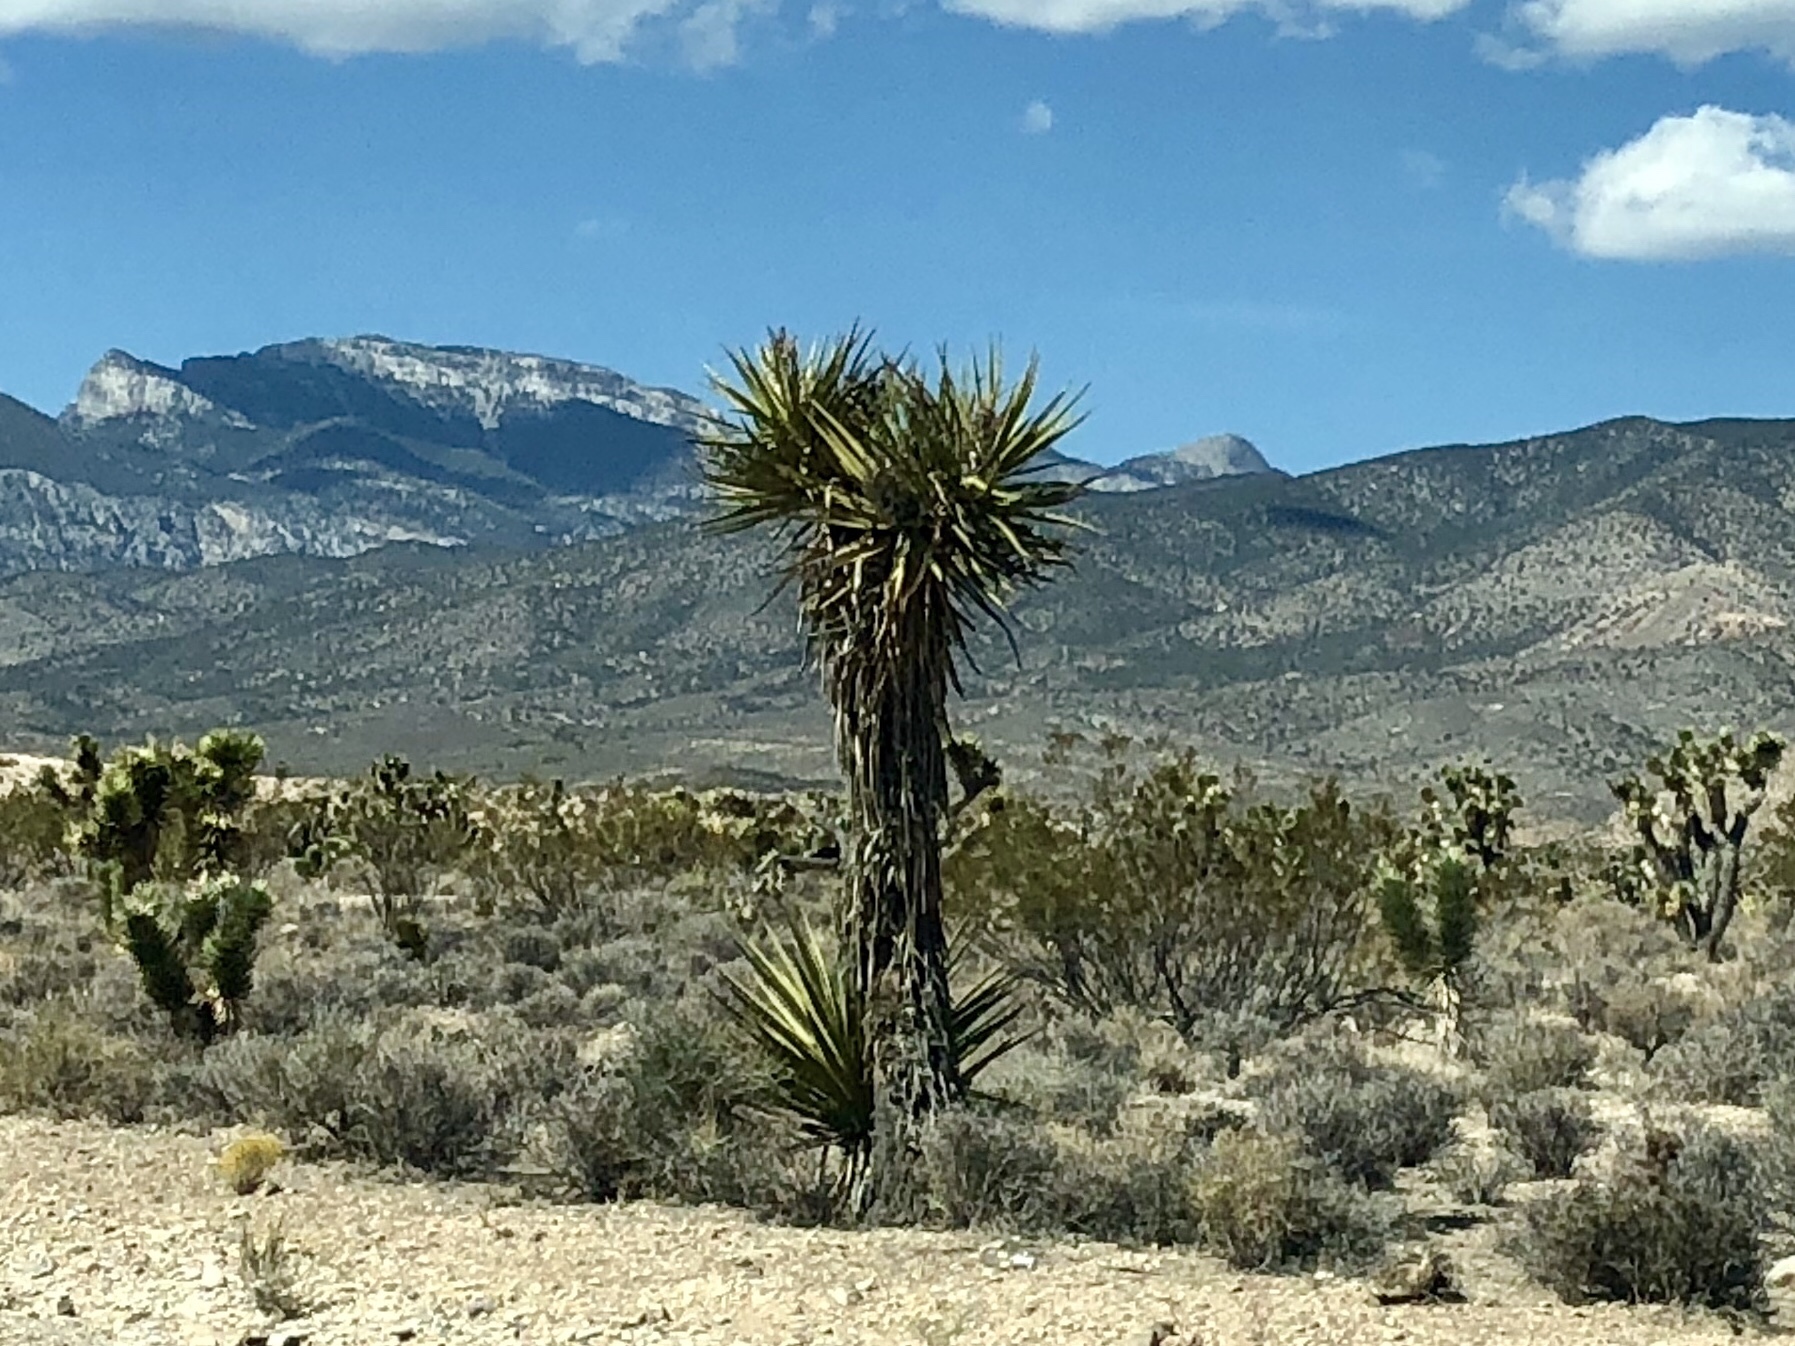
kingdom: Plantae
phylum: Tracheophyta
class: Liliopsida
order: Asparagales
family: Asparagaceae
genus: Yucca
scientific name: Yucca schidigera
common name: Mojave yucca
